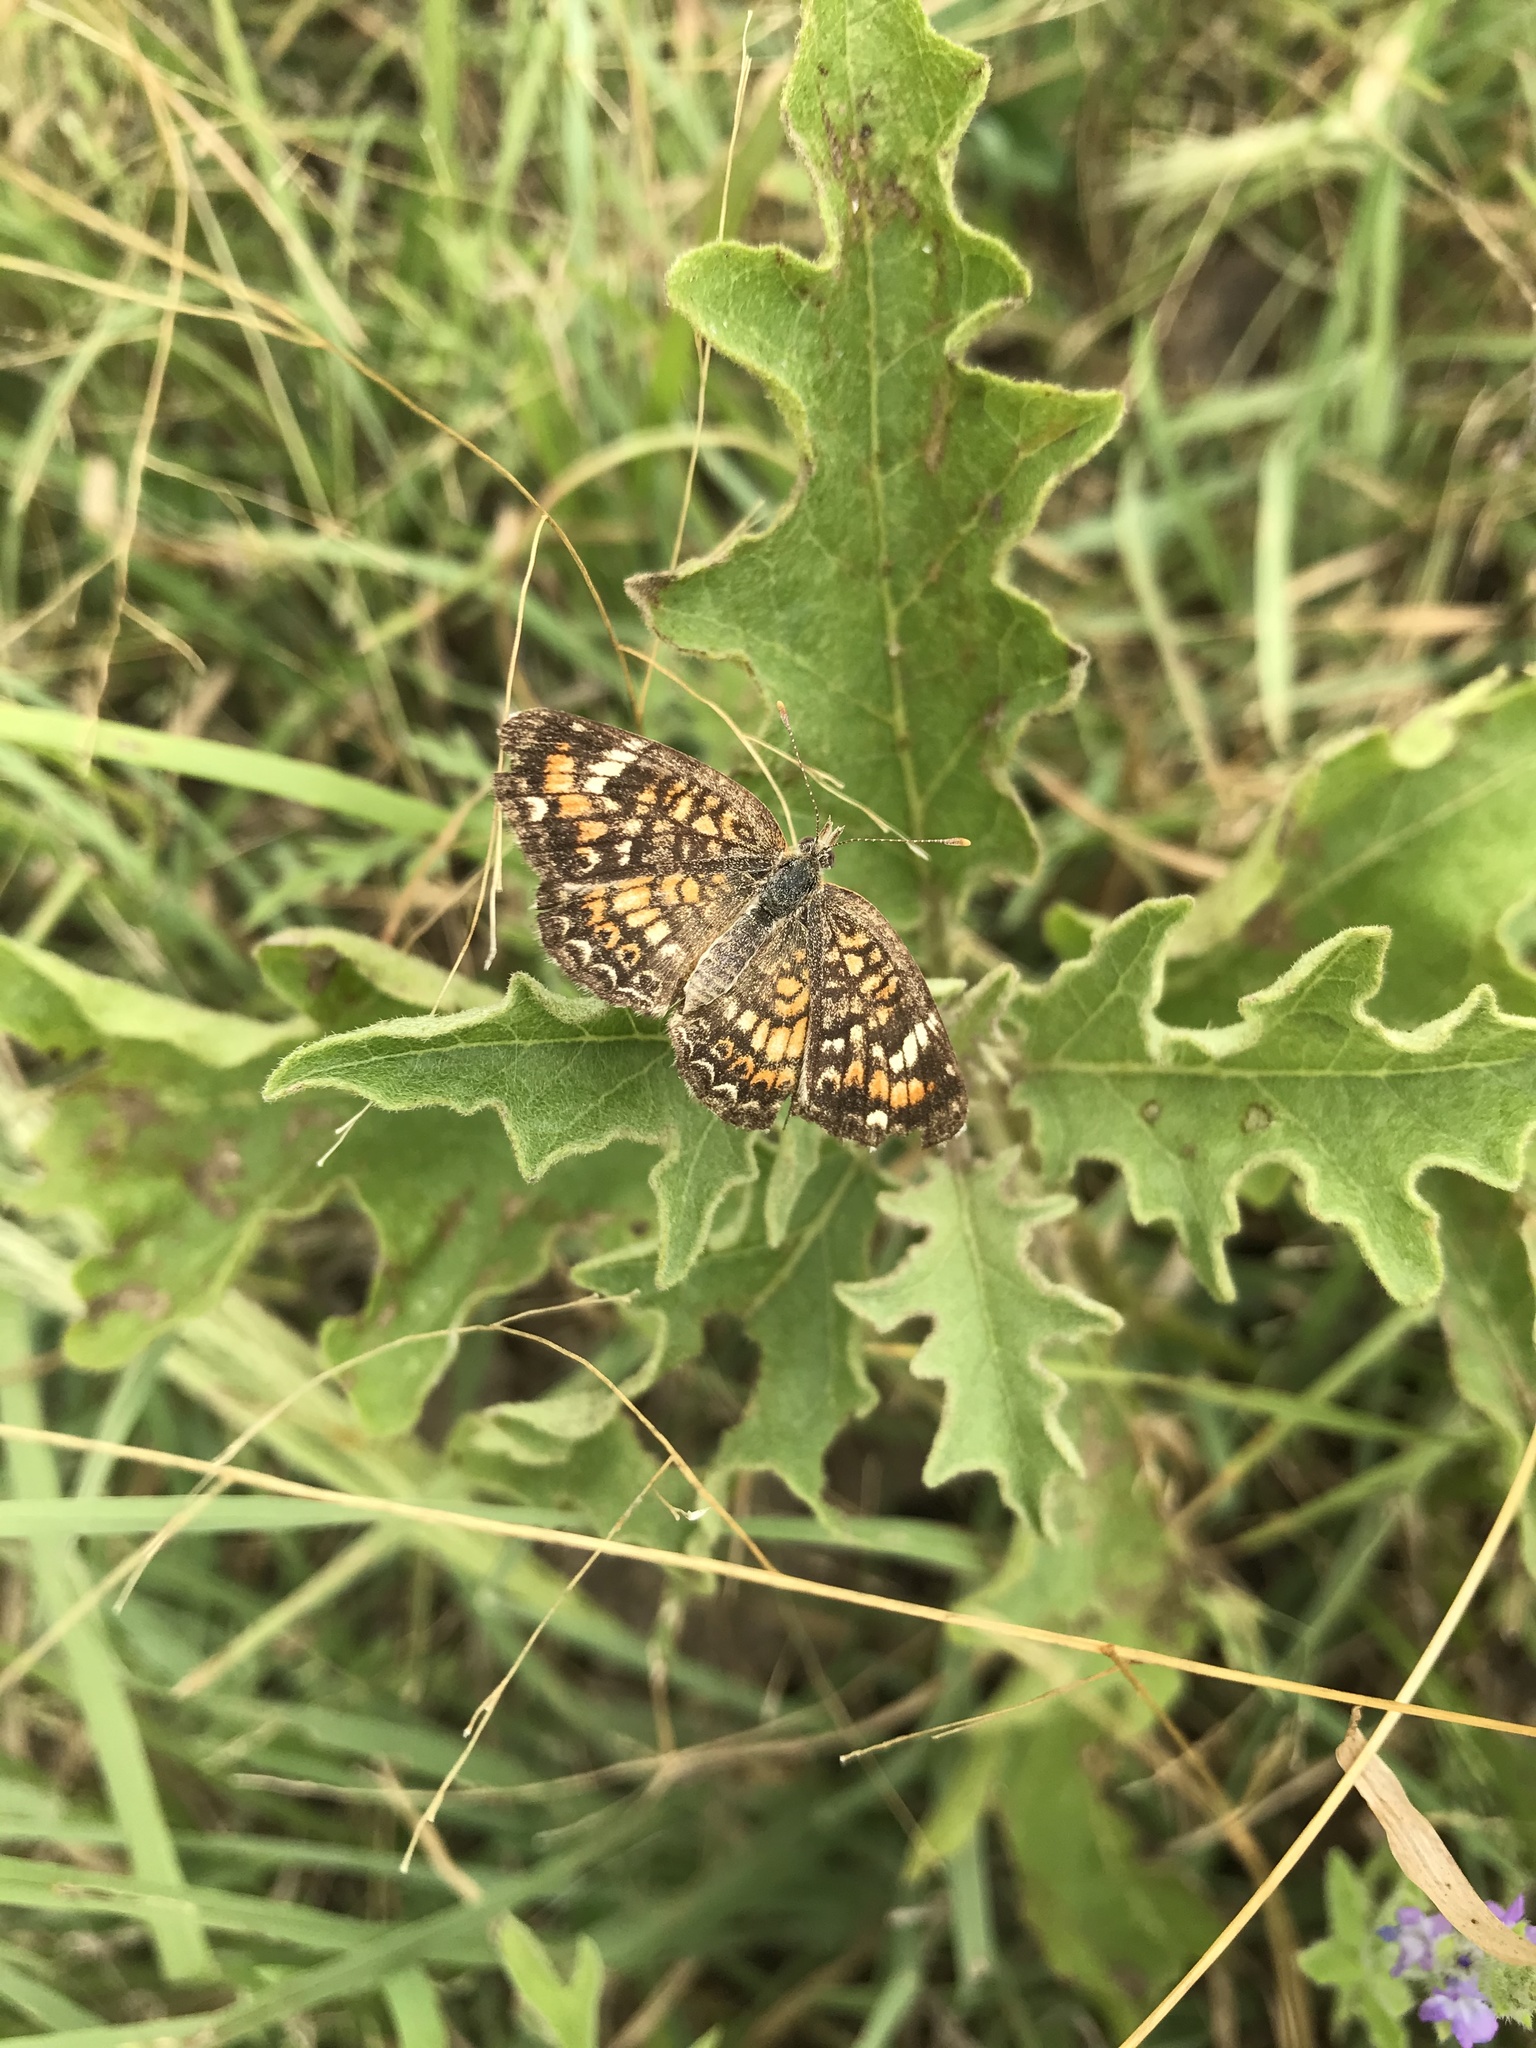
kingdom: Animalia
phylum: Arthropoda
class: Insecta
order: Lepidoptera
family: Nymphalidae
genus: Phyciodes
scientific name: Phyciodes phaon
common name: Phaon crescent
